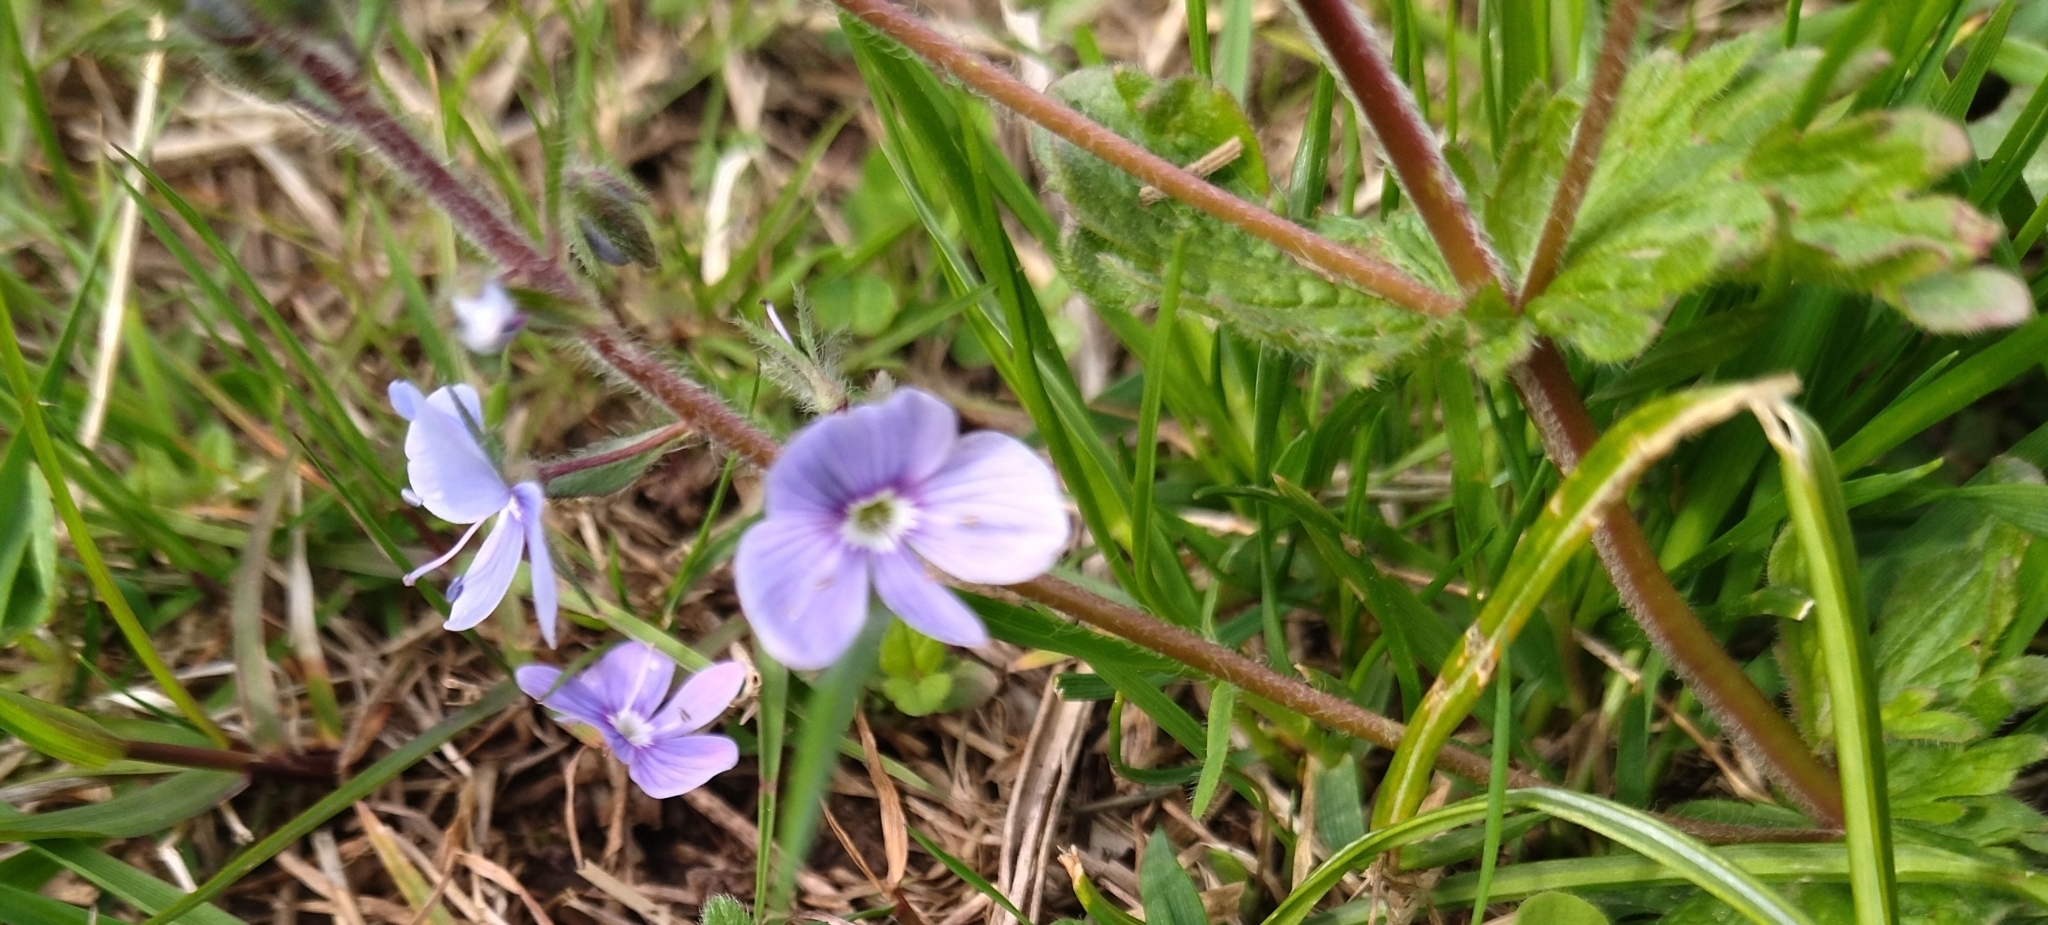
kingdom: Plantae
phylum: Tracheophyta
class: Magnoliopsida
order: Lamiales
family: Plantaginaceae
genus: Veronica
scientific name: Veronica chamaedrys
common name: Germander speedwell
